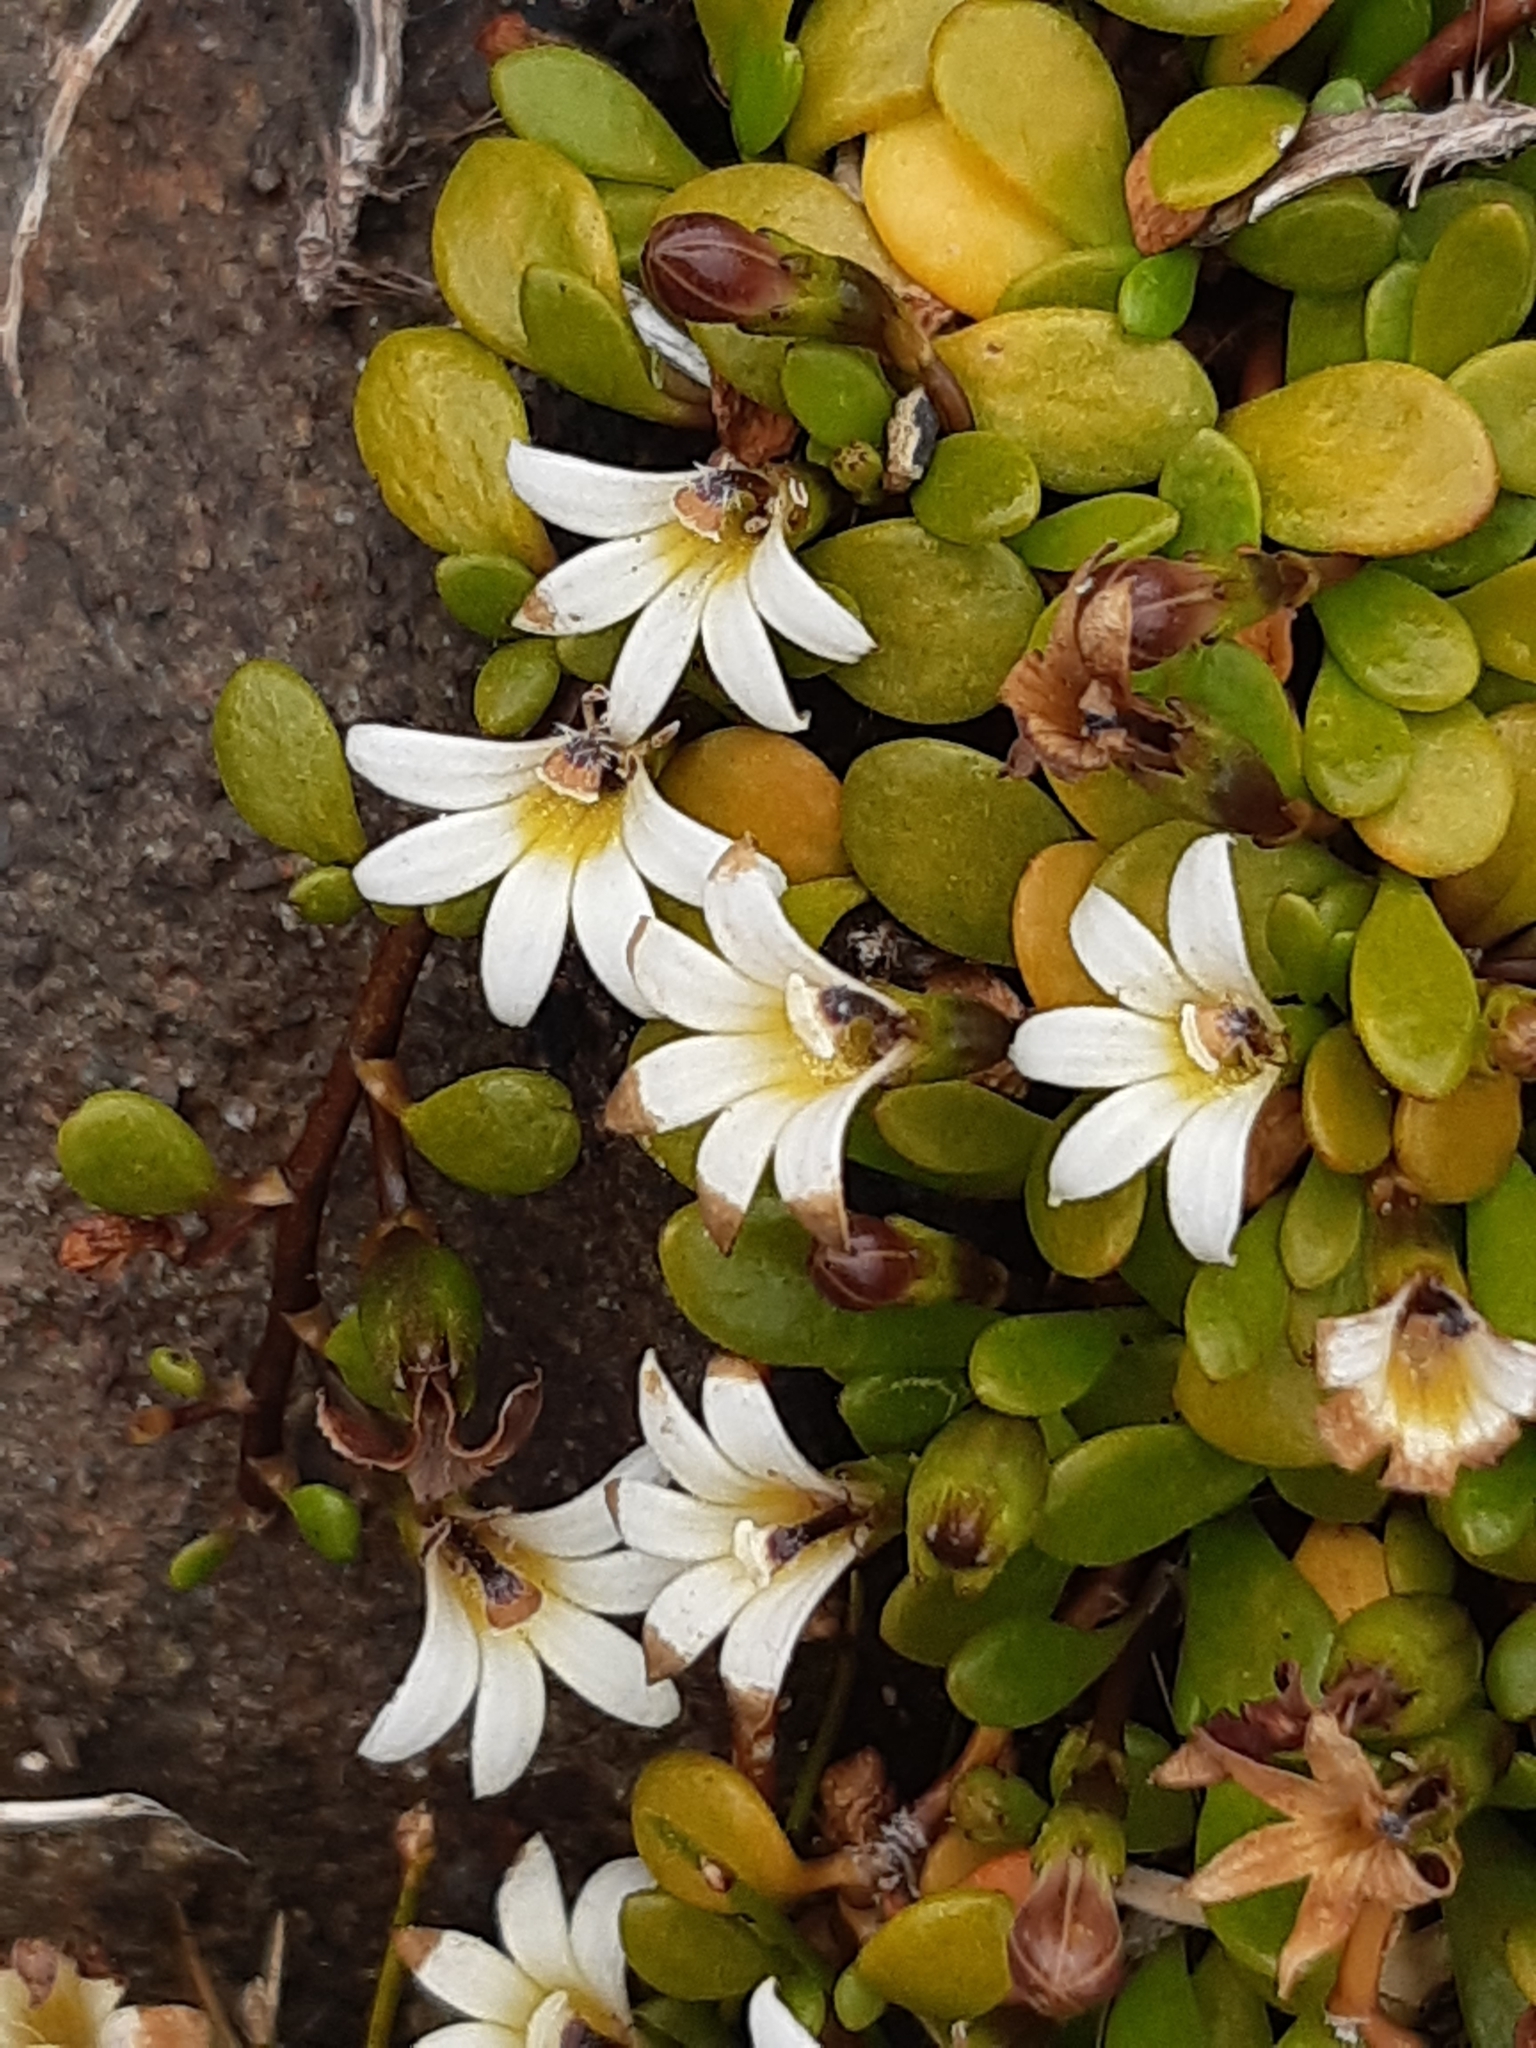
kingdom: Plantae
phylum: Tracheophyta
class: Magnoliopsida
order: Asterales
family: Goodeniaceae
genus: Goodenia
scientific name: Goodenia radicans
